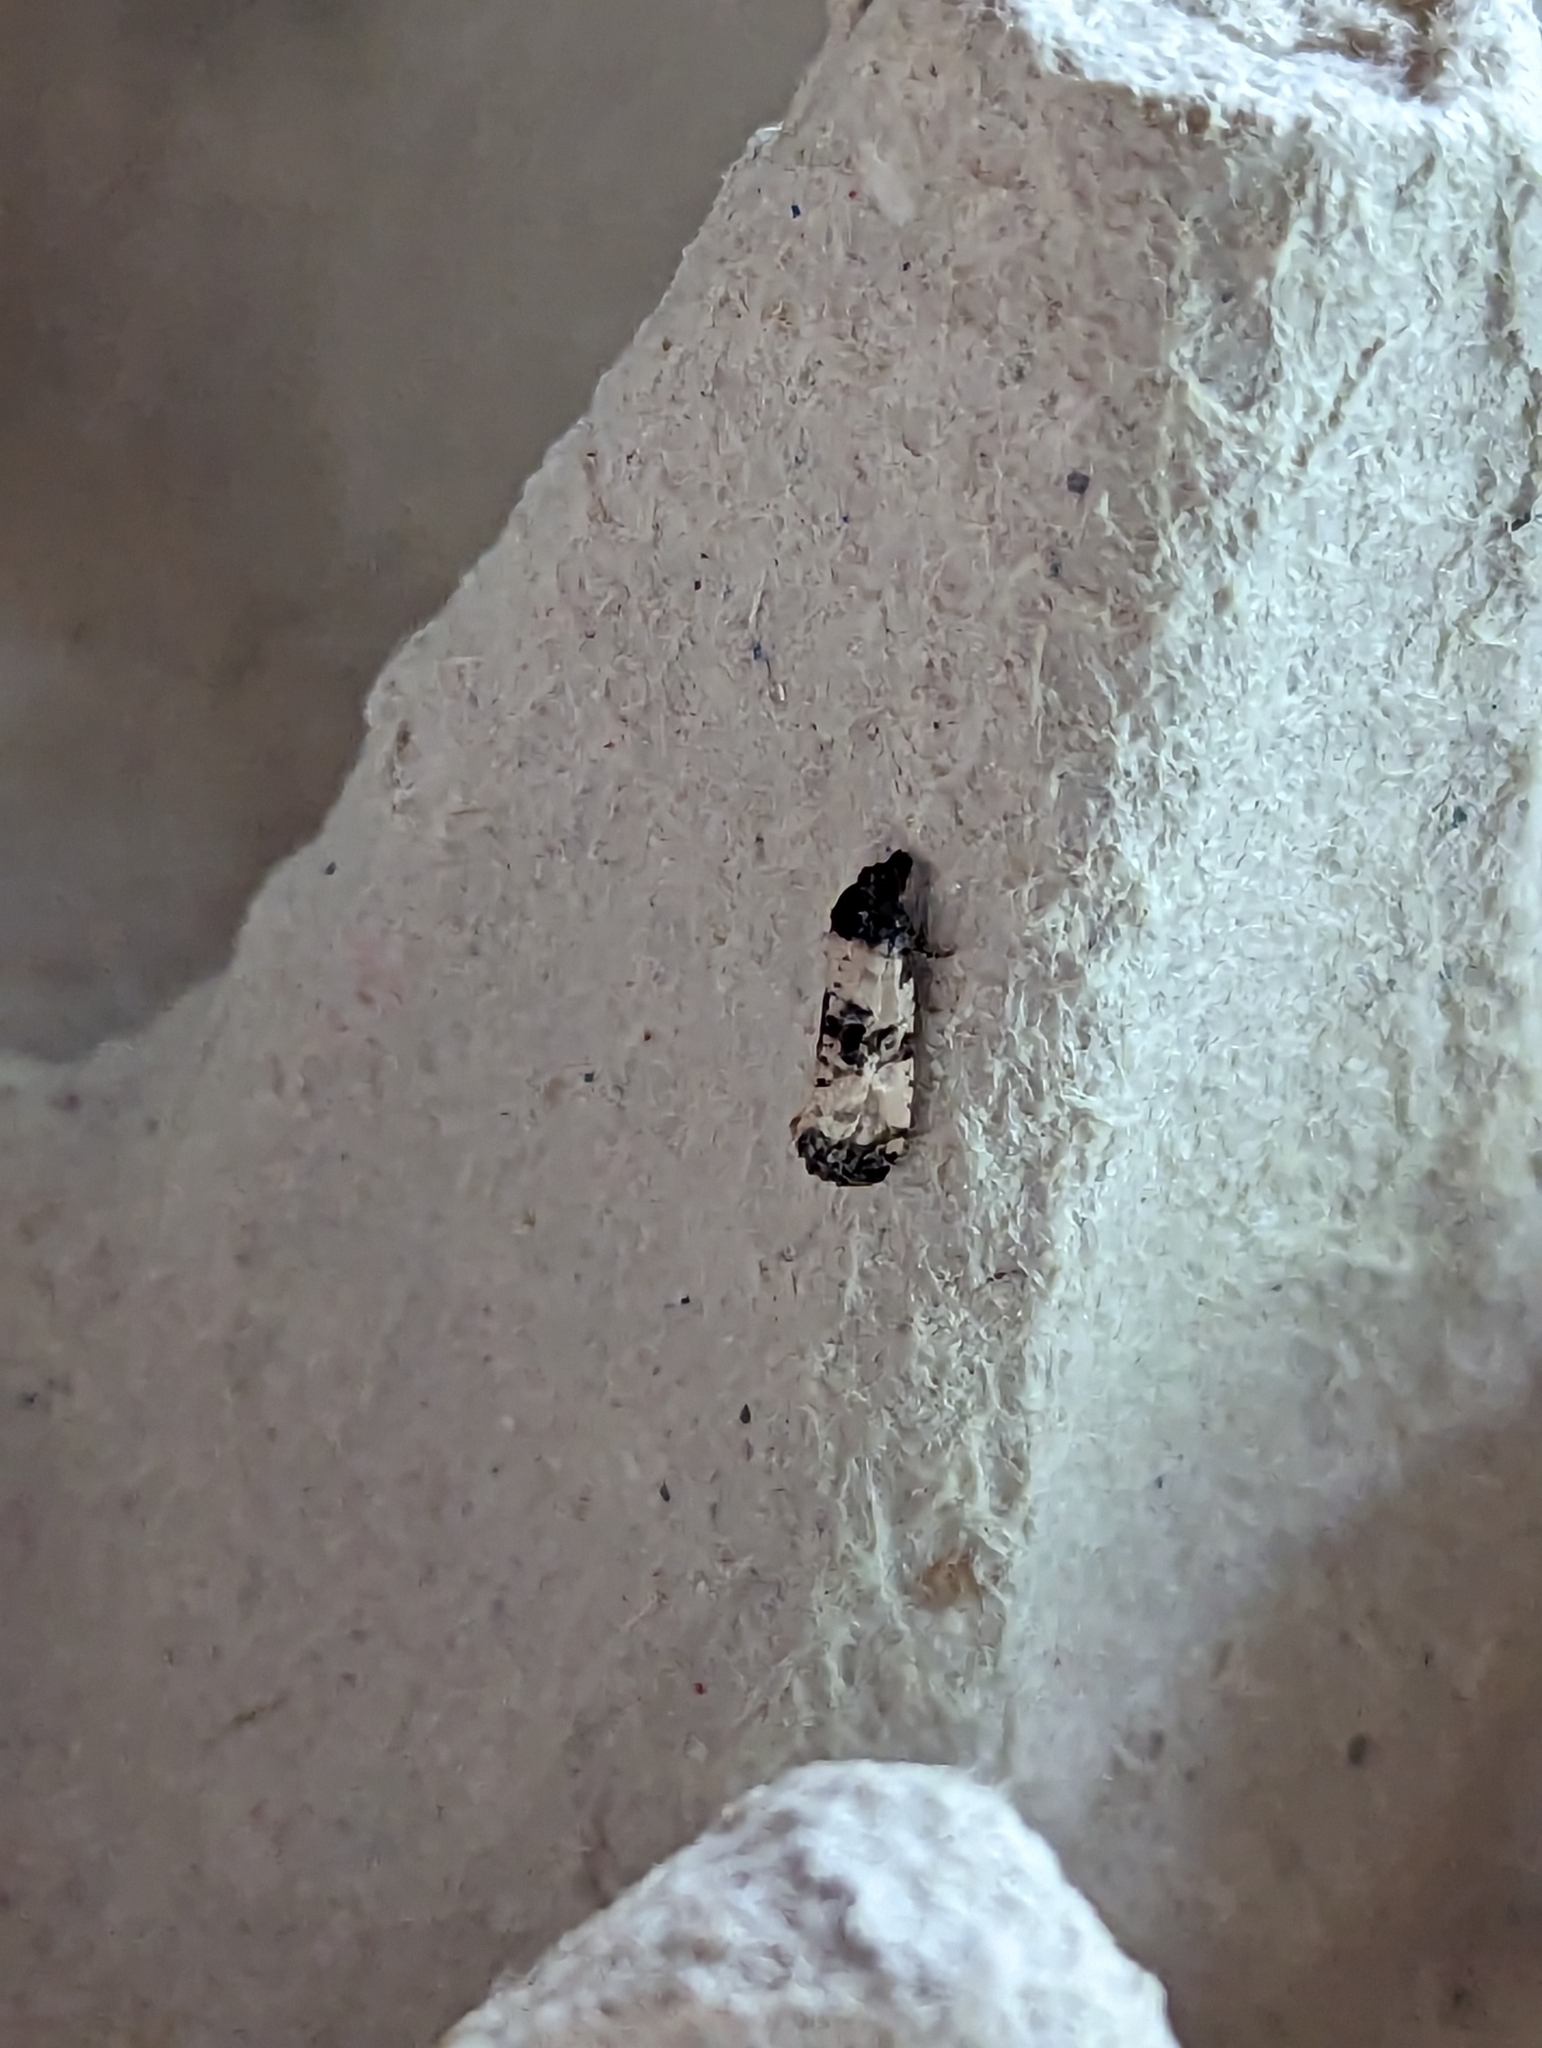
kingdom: Animalia
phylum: Arthropoda
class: Insecta
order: Lepidoptera
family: Tortricidae
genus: Cochylis
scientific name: Cochylis atricapitana
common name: Tortricid moth
